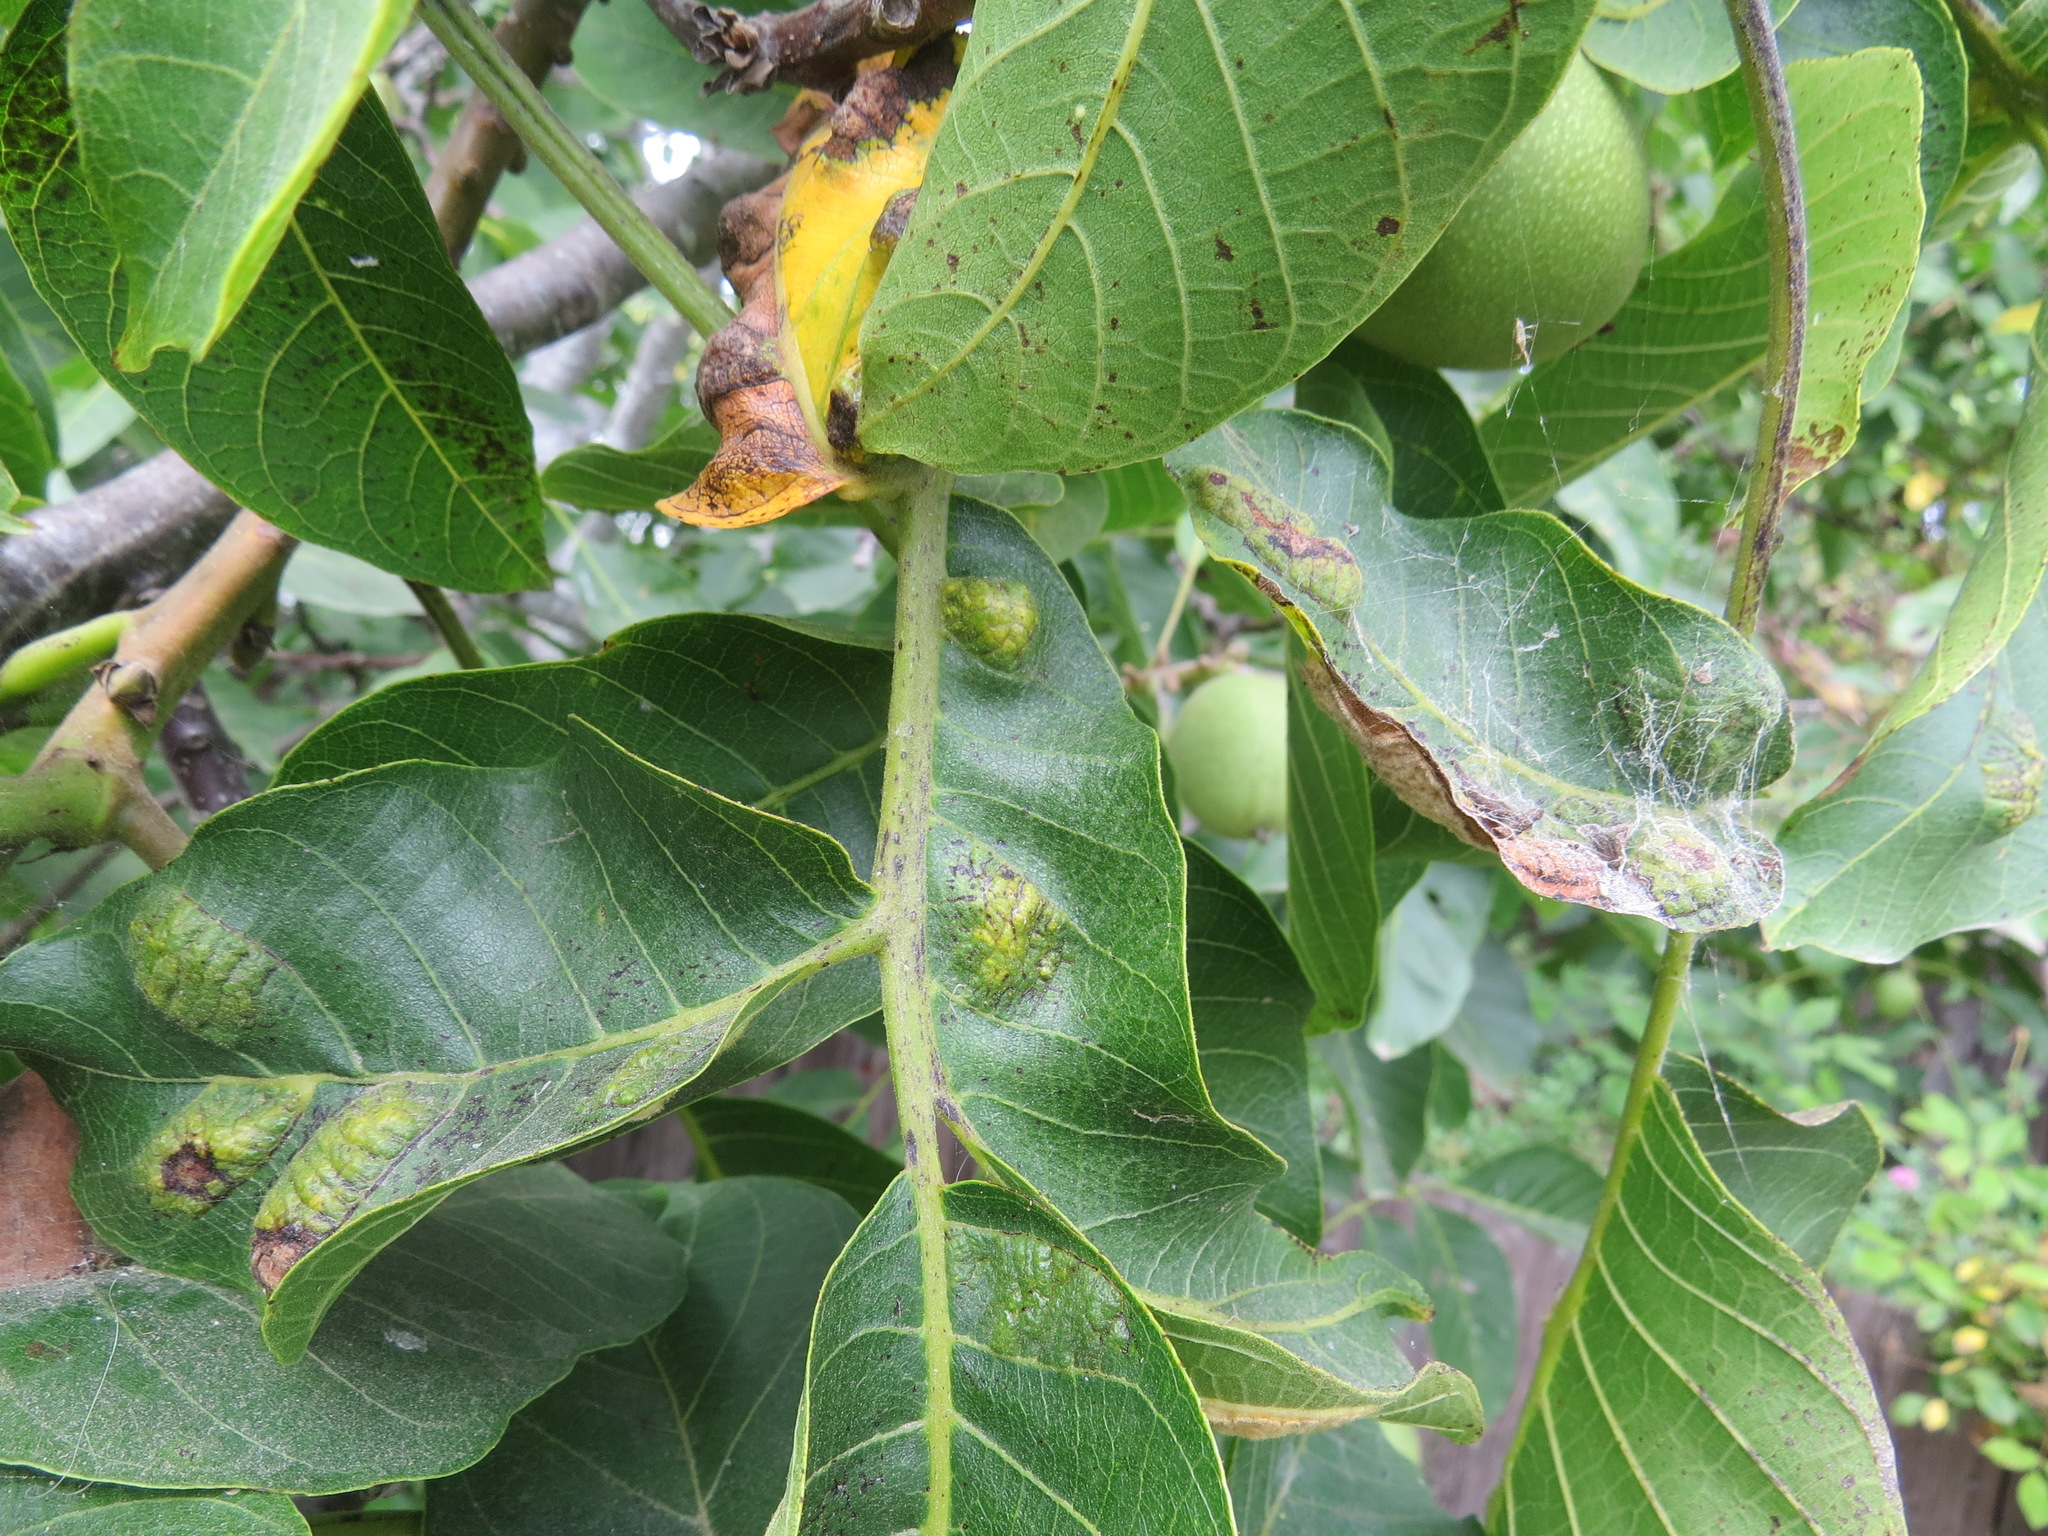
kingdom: Animalia
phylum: Arthropoda
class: Arachnida
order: Trombidiformes
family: Eriophyidae
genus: Aceria
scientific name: Aceria erinea
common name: Persian walnut erineum mite
